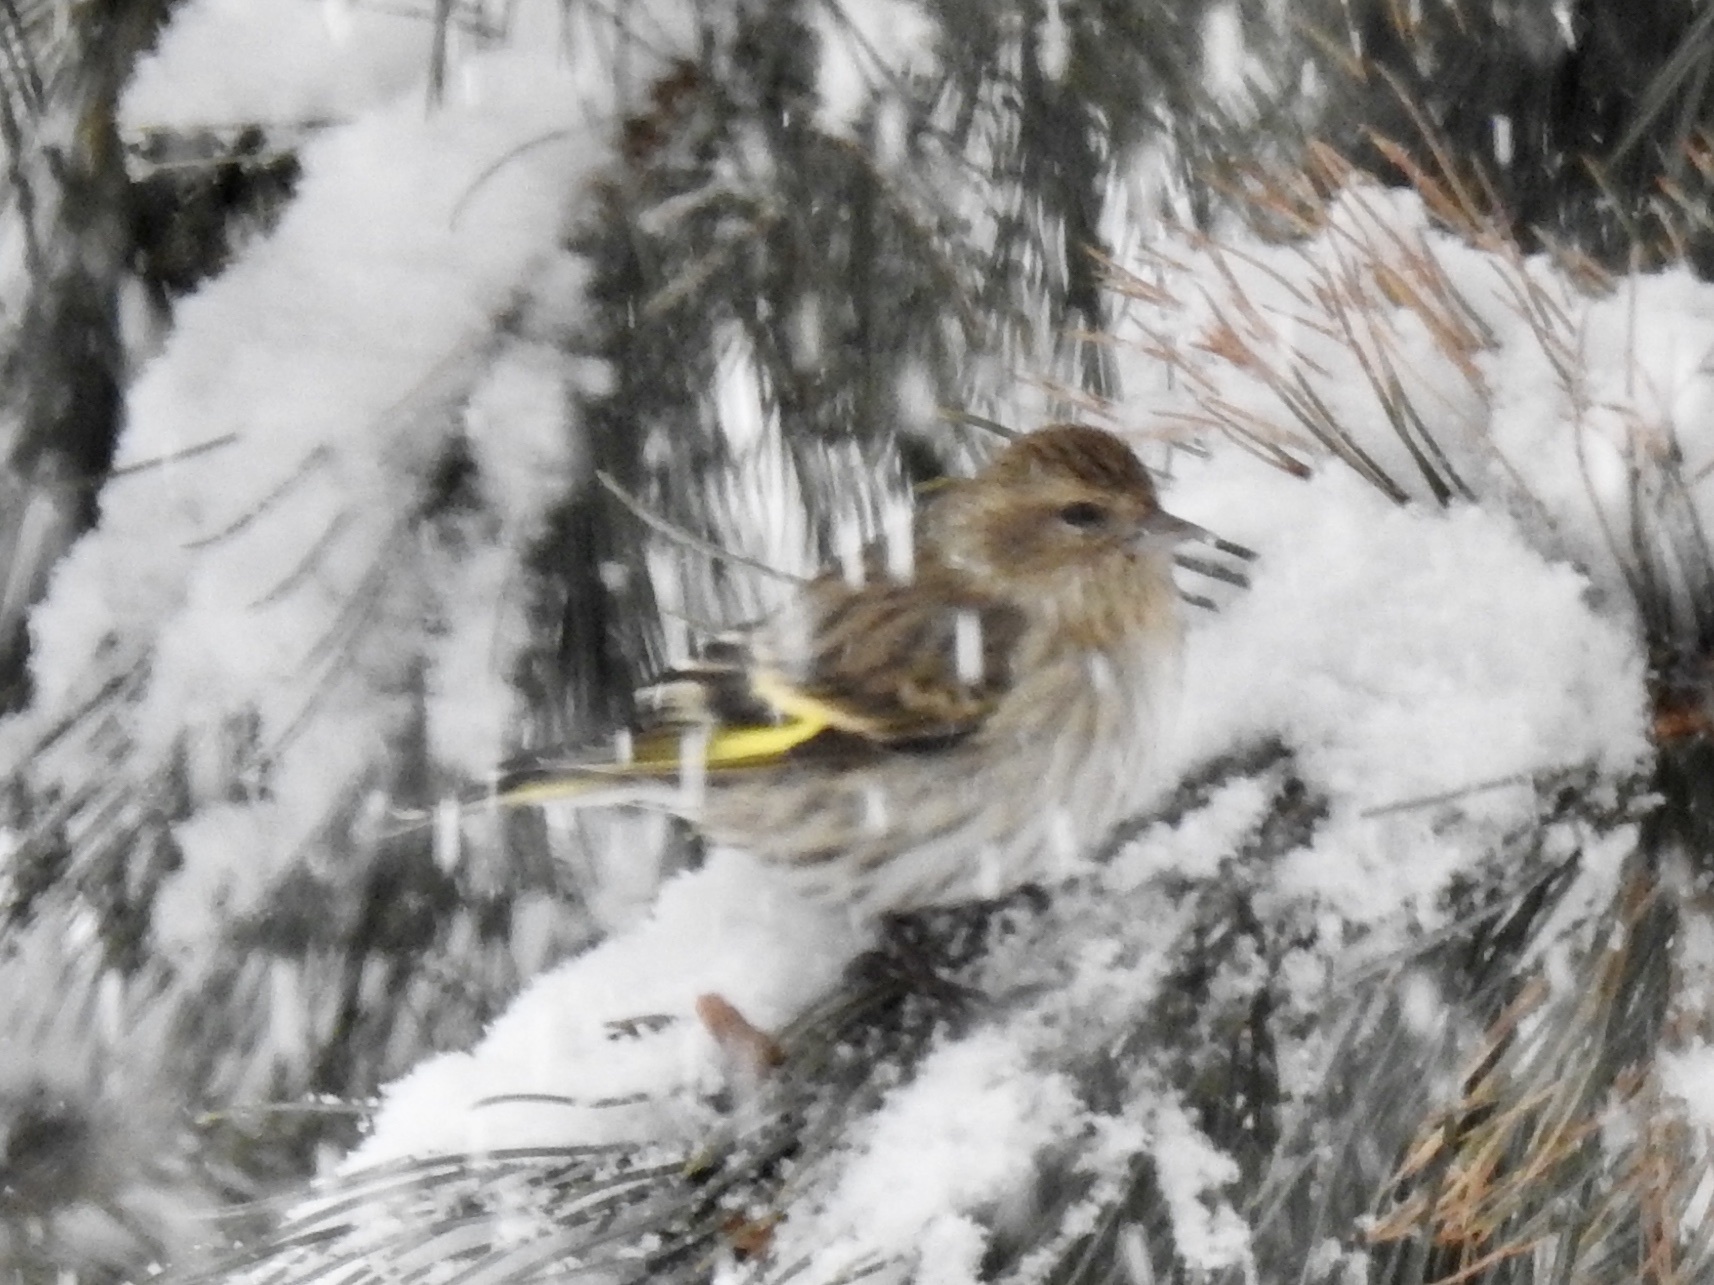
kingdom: Animalia
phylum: Chordata
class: Aves
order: Passeriformes
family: Fringillidae
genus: Spinus
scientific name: Spinus pinus
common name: Pine siskin
